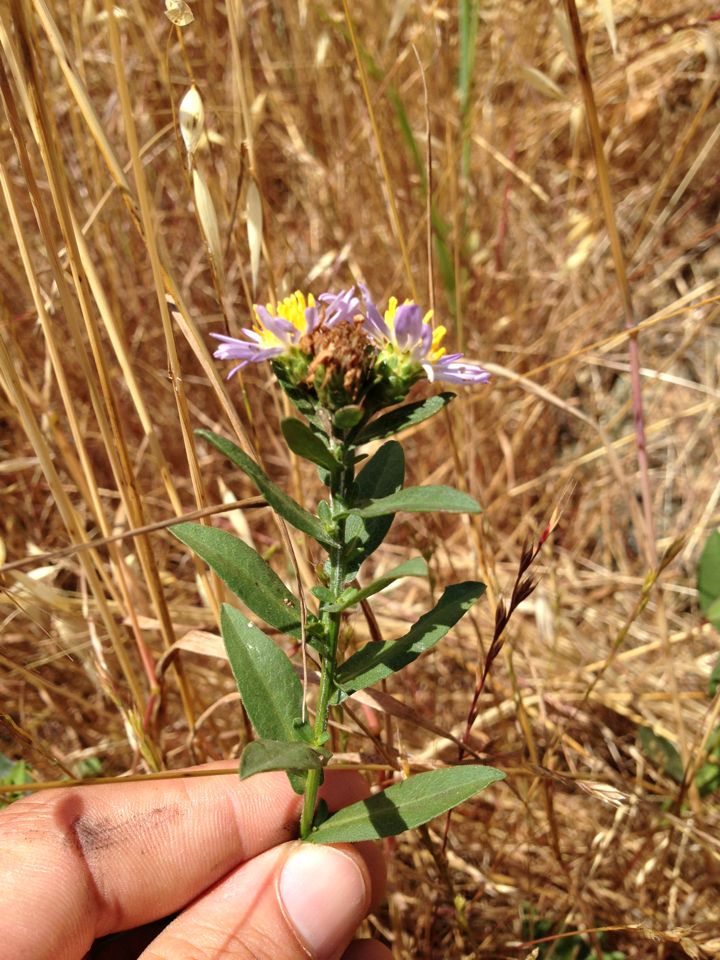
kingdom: Plantae
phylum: Tracheophyta
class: Magnoliopsida
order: Asterales
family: Asteraceae
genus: Symphyotrichum
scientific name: Symphyotrichum chilense
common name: Pacific aster
